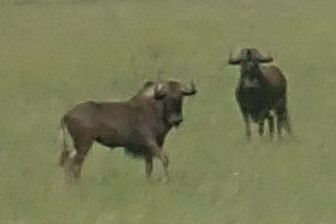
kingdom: Animalia
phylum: Chordata
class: Mammalia
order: Artiodactyla
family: Bovidae
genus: Connochaetes
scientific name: Connochaetes gnou
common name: Black wildebeest
